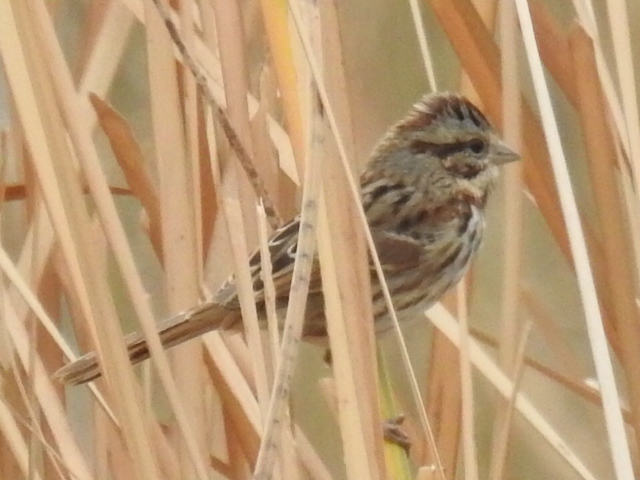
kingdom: Animalia
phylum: Chordata
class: Aves
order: Passeriformes
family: Passerellidae
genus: Melospiza
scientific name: Melospiza melodia
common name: Song sparrow
